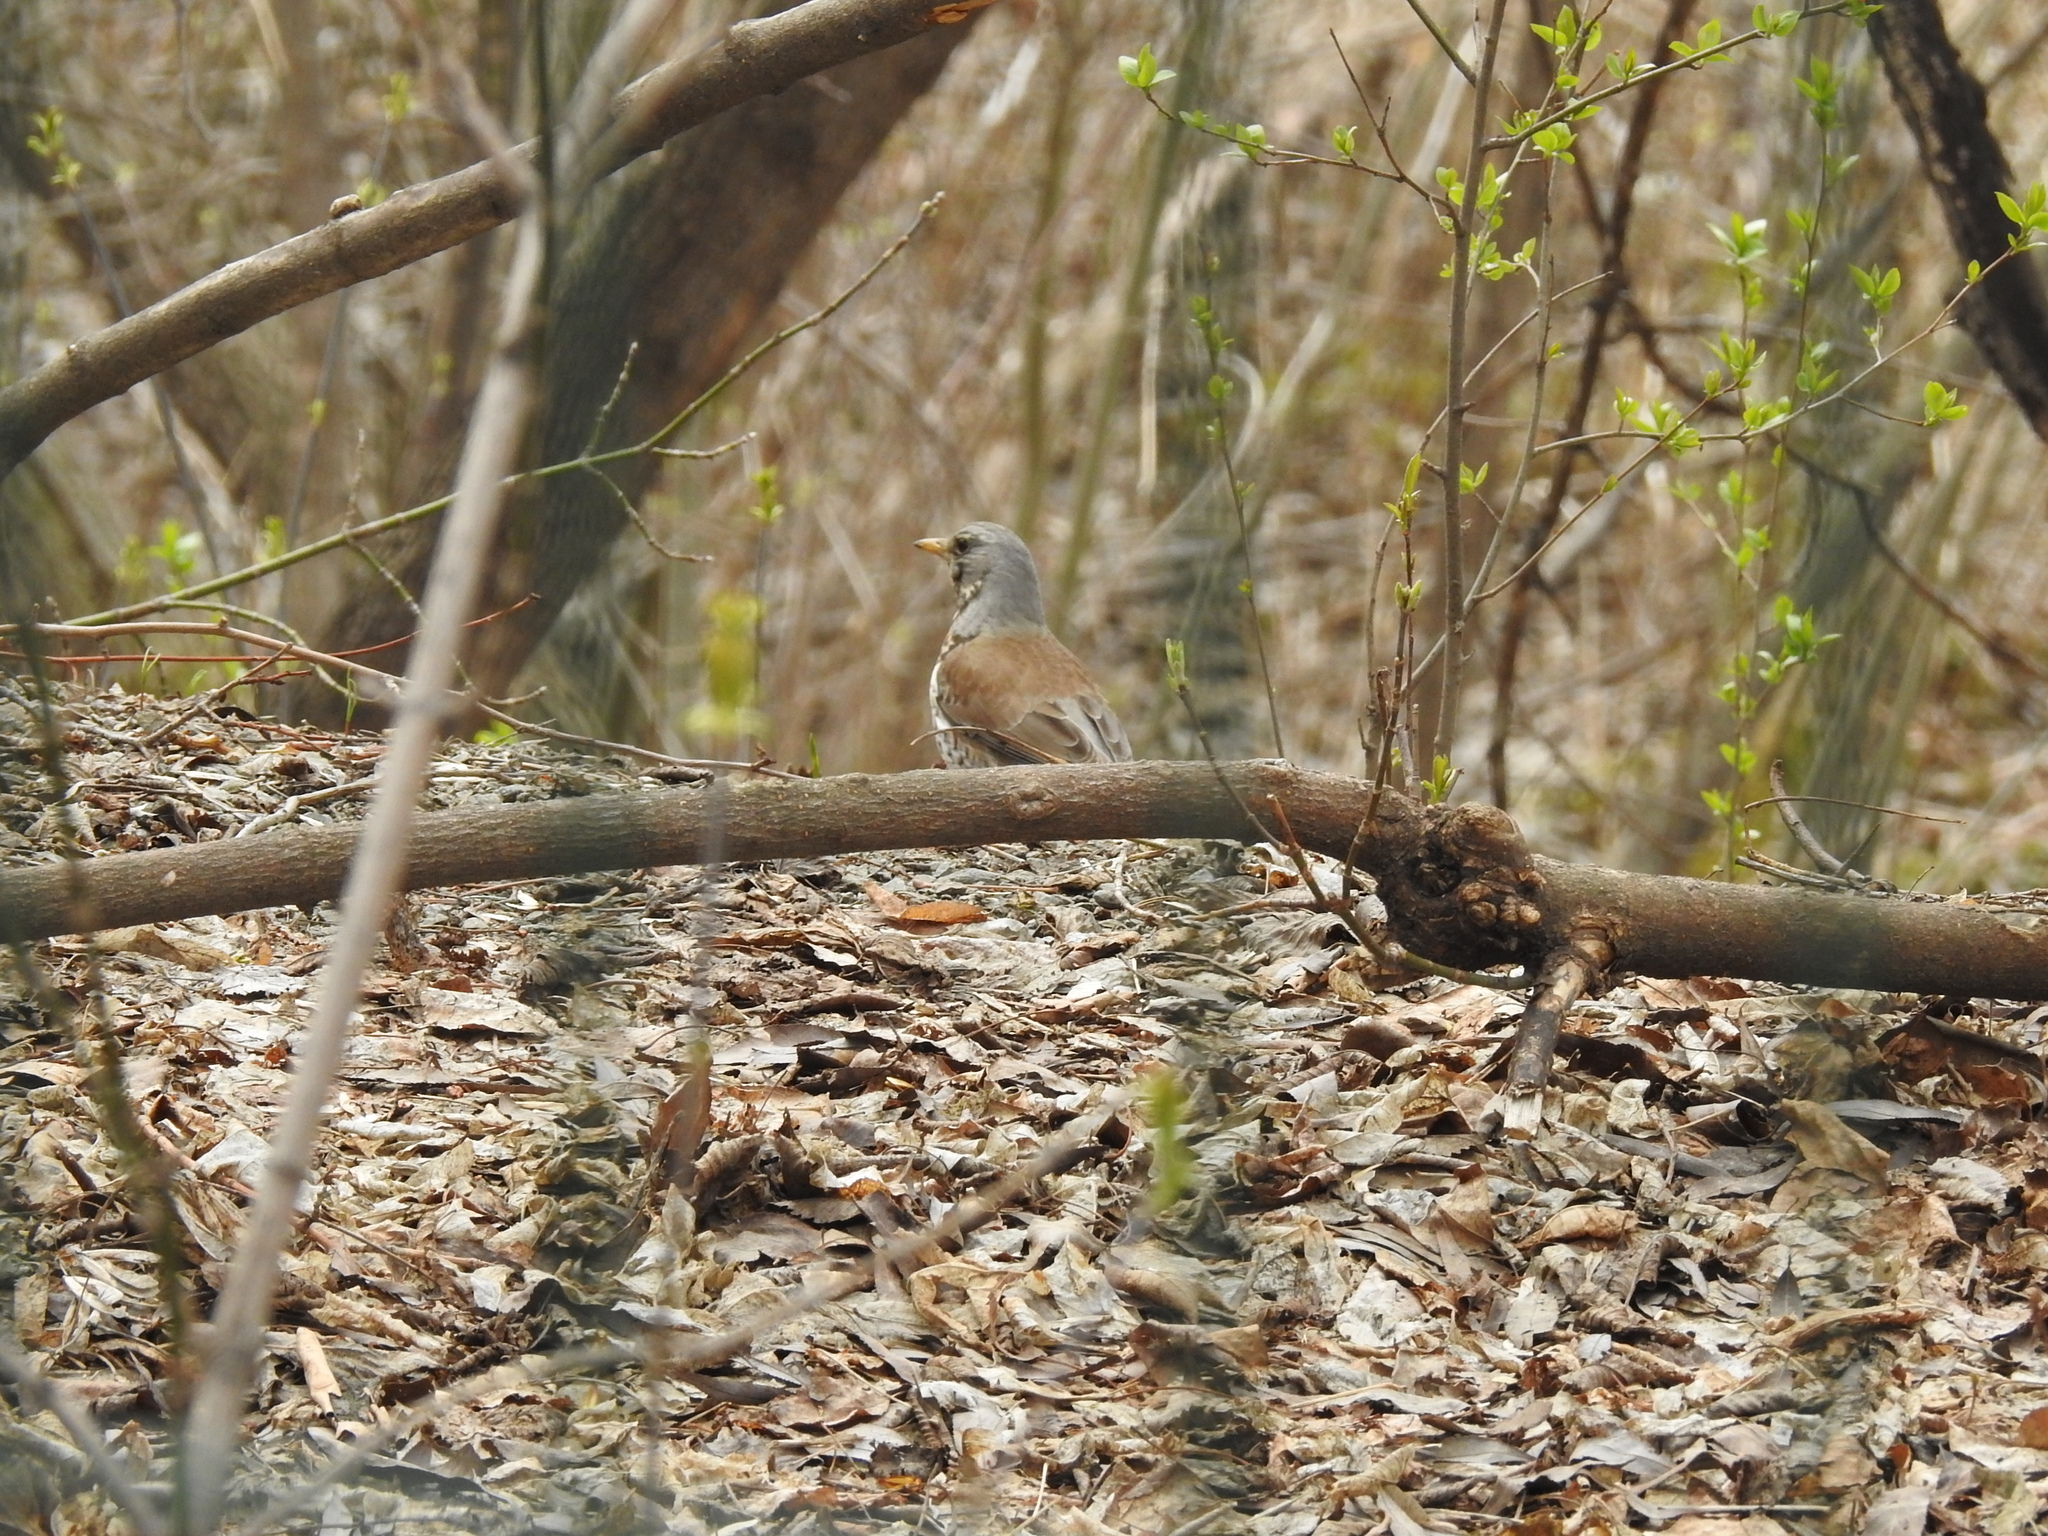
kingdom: Animalia
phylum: Chordata
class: Aves
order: Passeriformes
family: Turdidae
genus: Turdus
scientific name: Turdus pilaris
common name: Fieldfare
